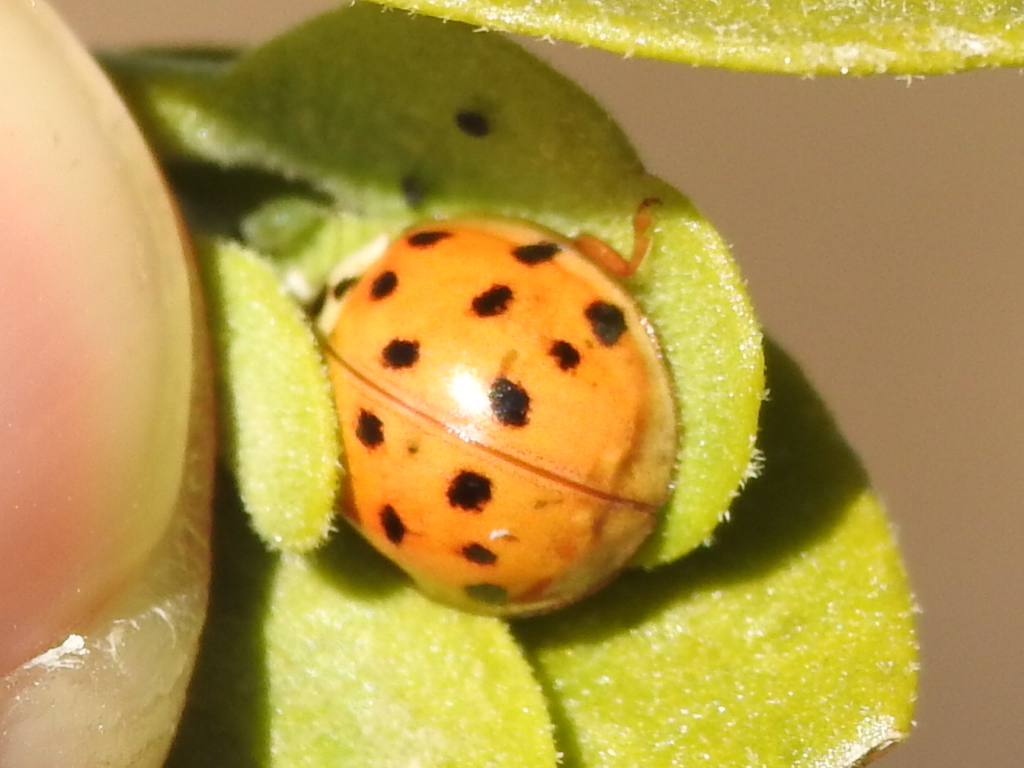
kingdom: Animalia
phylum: Arthropoda
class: Insecta
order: Coleoptera
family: Coccinellidae
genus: Harmonia
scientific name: Harmonia axyridis
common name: Harlequin ladybird
